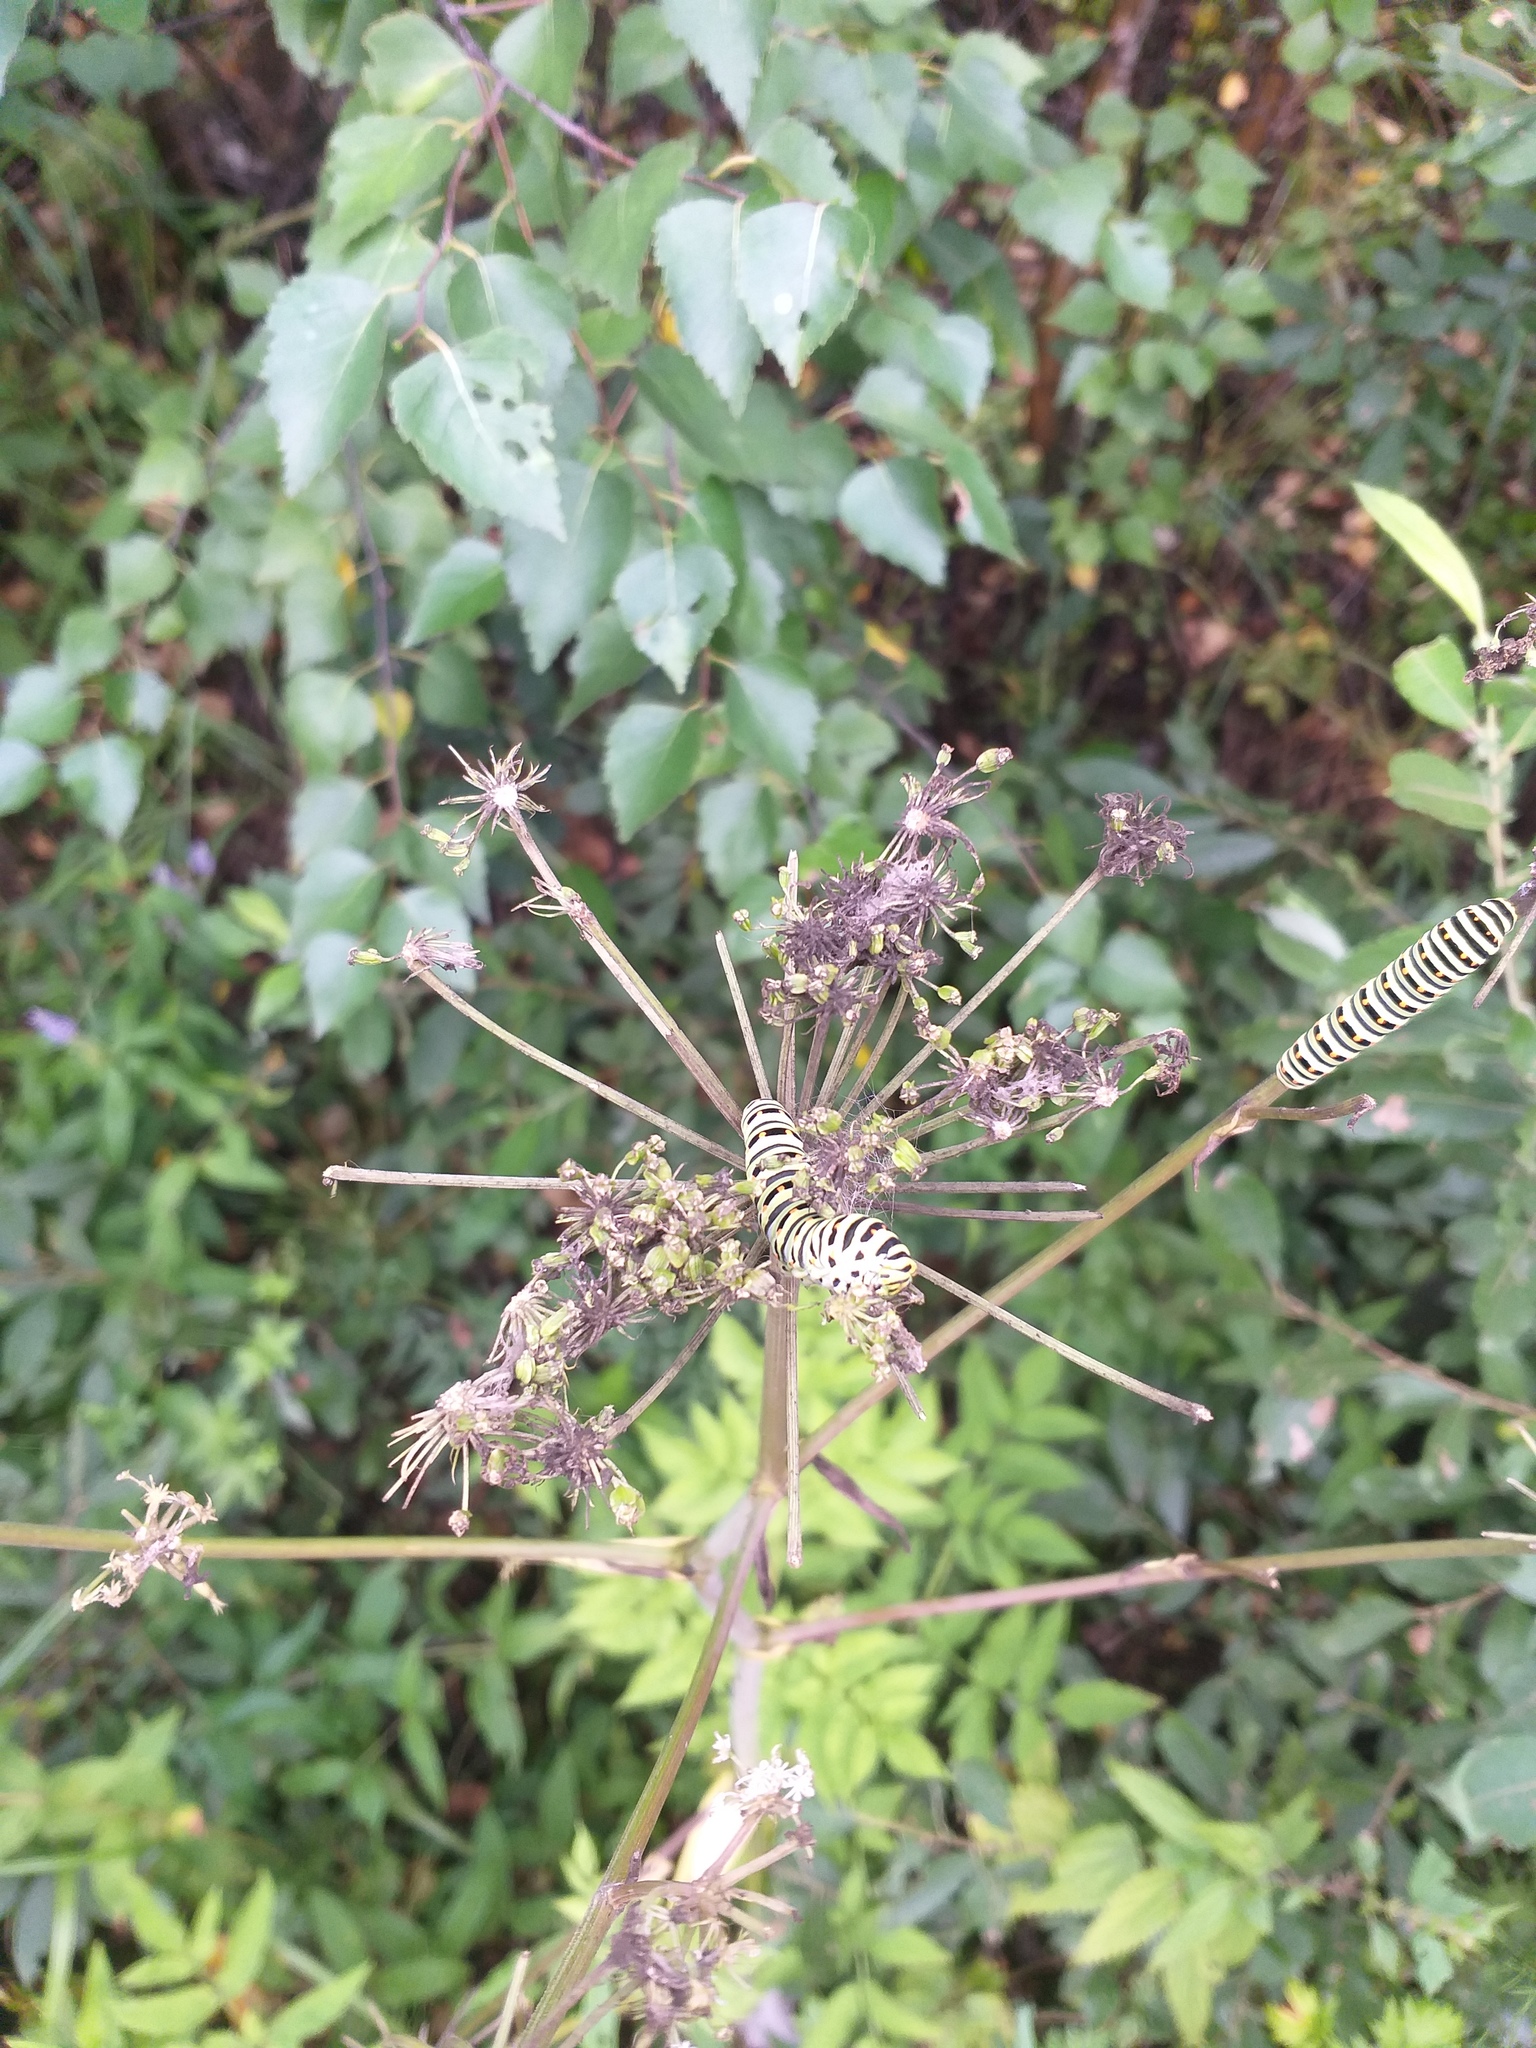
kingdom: Animalia
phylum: Arthropoda
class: Insecta
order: Lepidoptera
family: Papilionidae
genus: Papilio
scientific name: Papilio machaon
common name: Swallowtail
